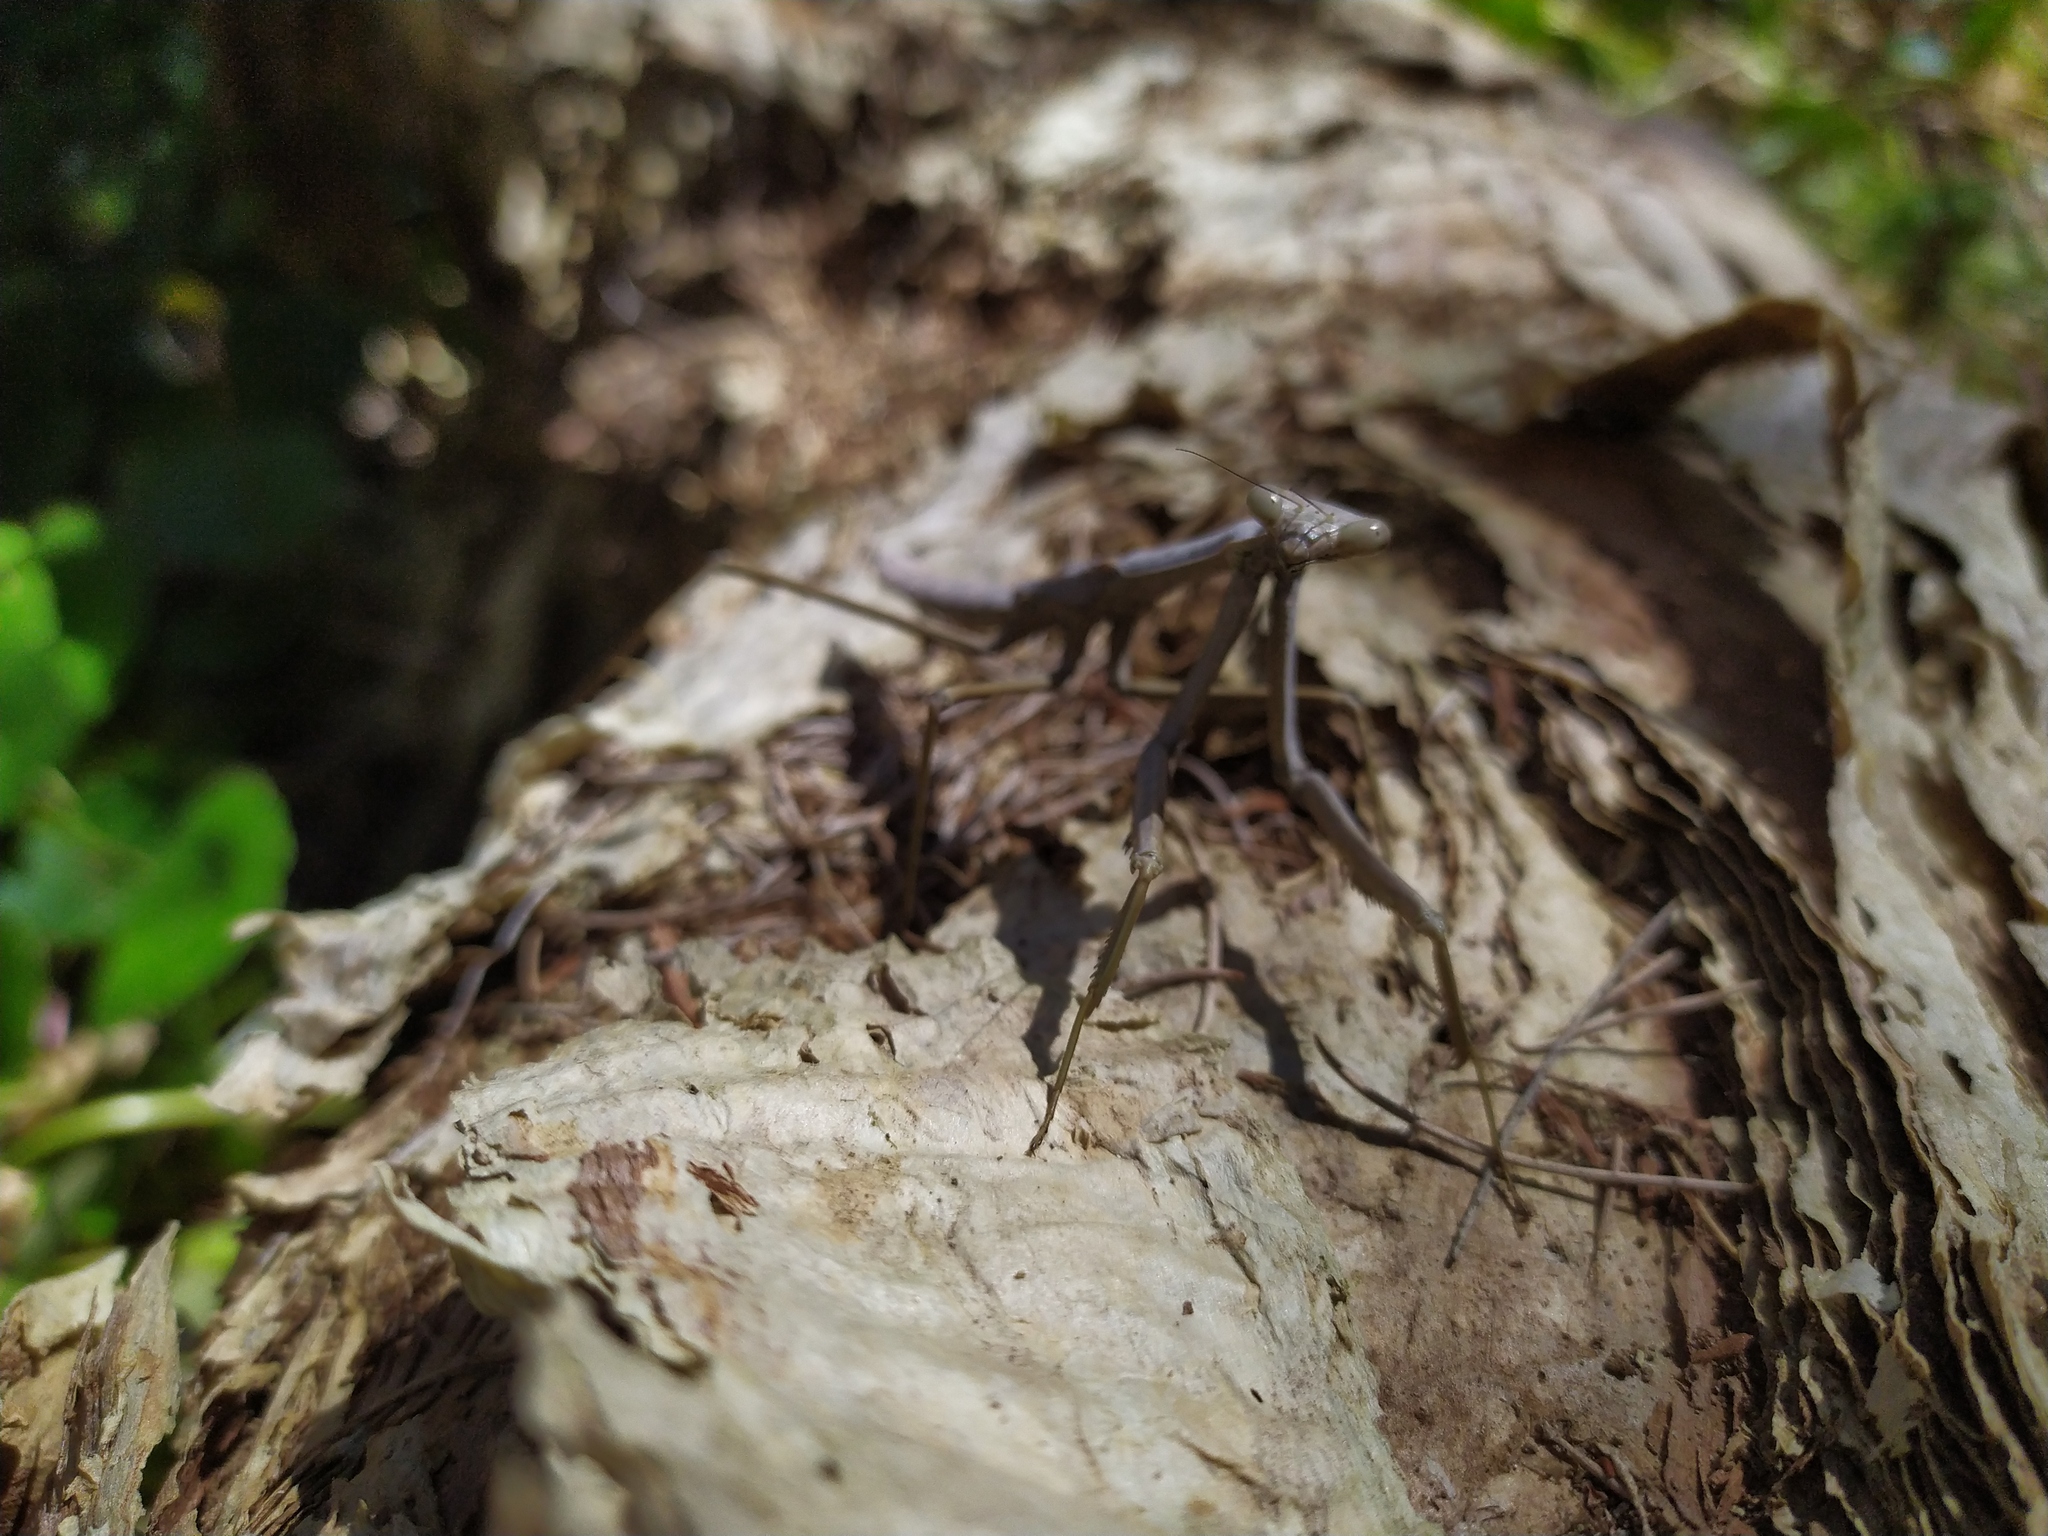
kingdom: Animalia
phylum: Arthropoda
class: Insecta
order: Mantodea
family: Mantidae
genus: Archimantis
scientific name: Archimantis sobrina
